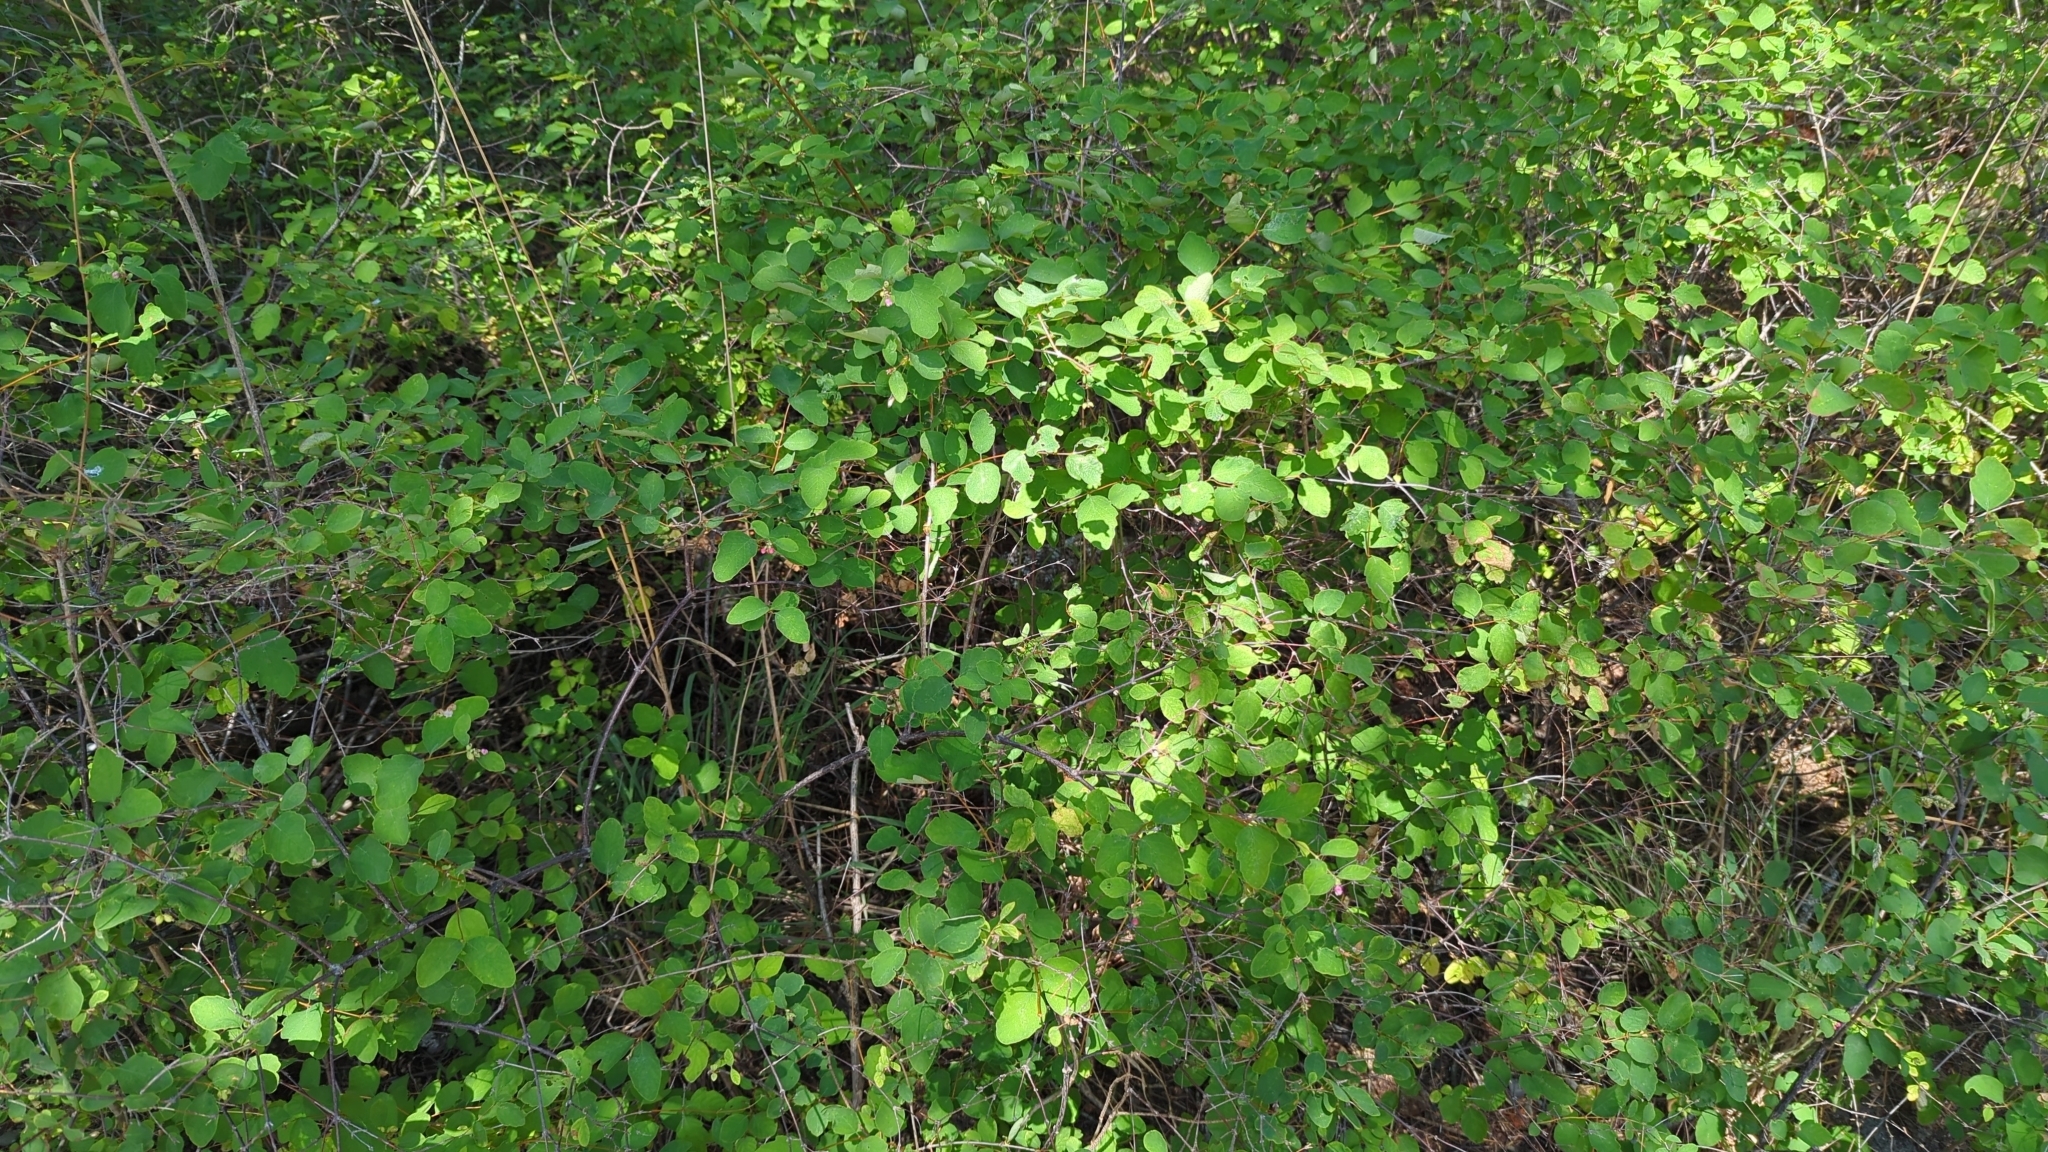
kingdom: Plantae
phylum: Tracheophyta
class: Magnoliopsida
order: Dipsacales
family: Caprifoliaceae
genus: Symphoricarpos
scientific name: Symphoricarpos albus
